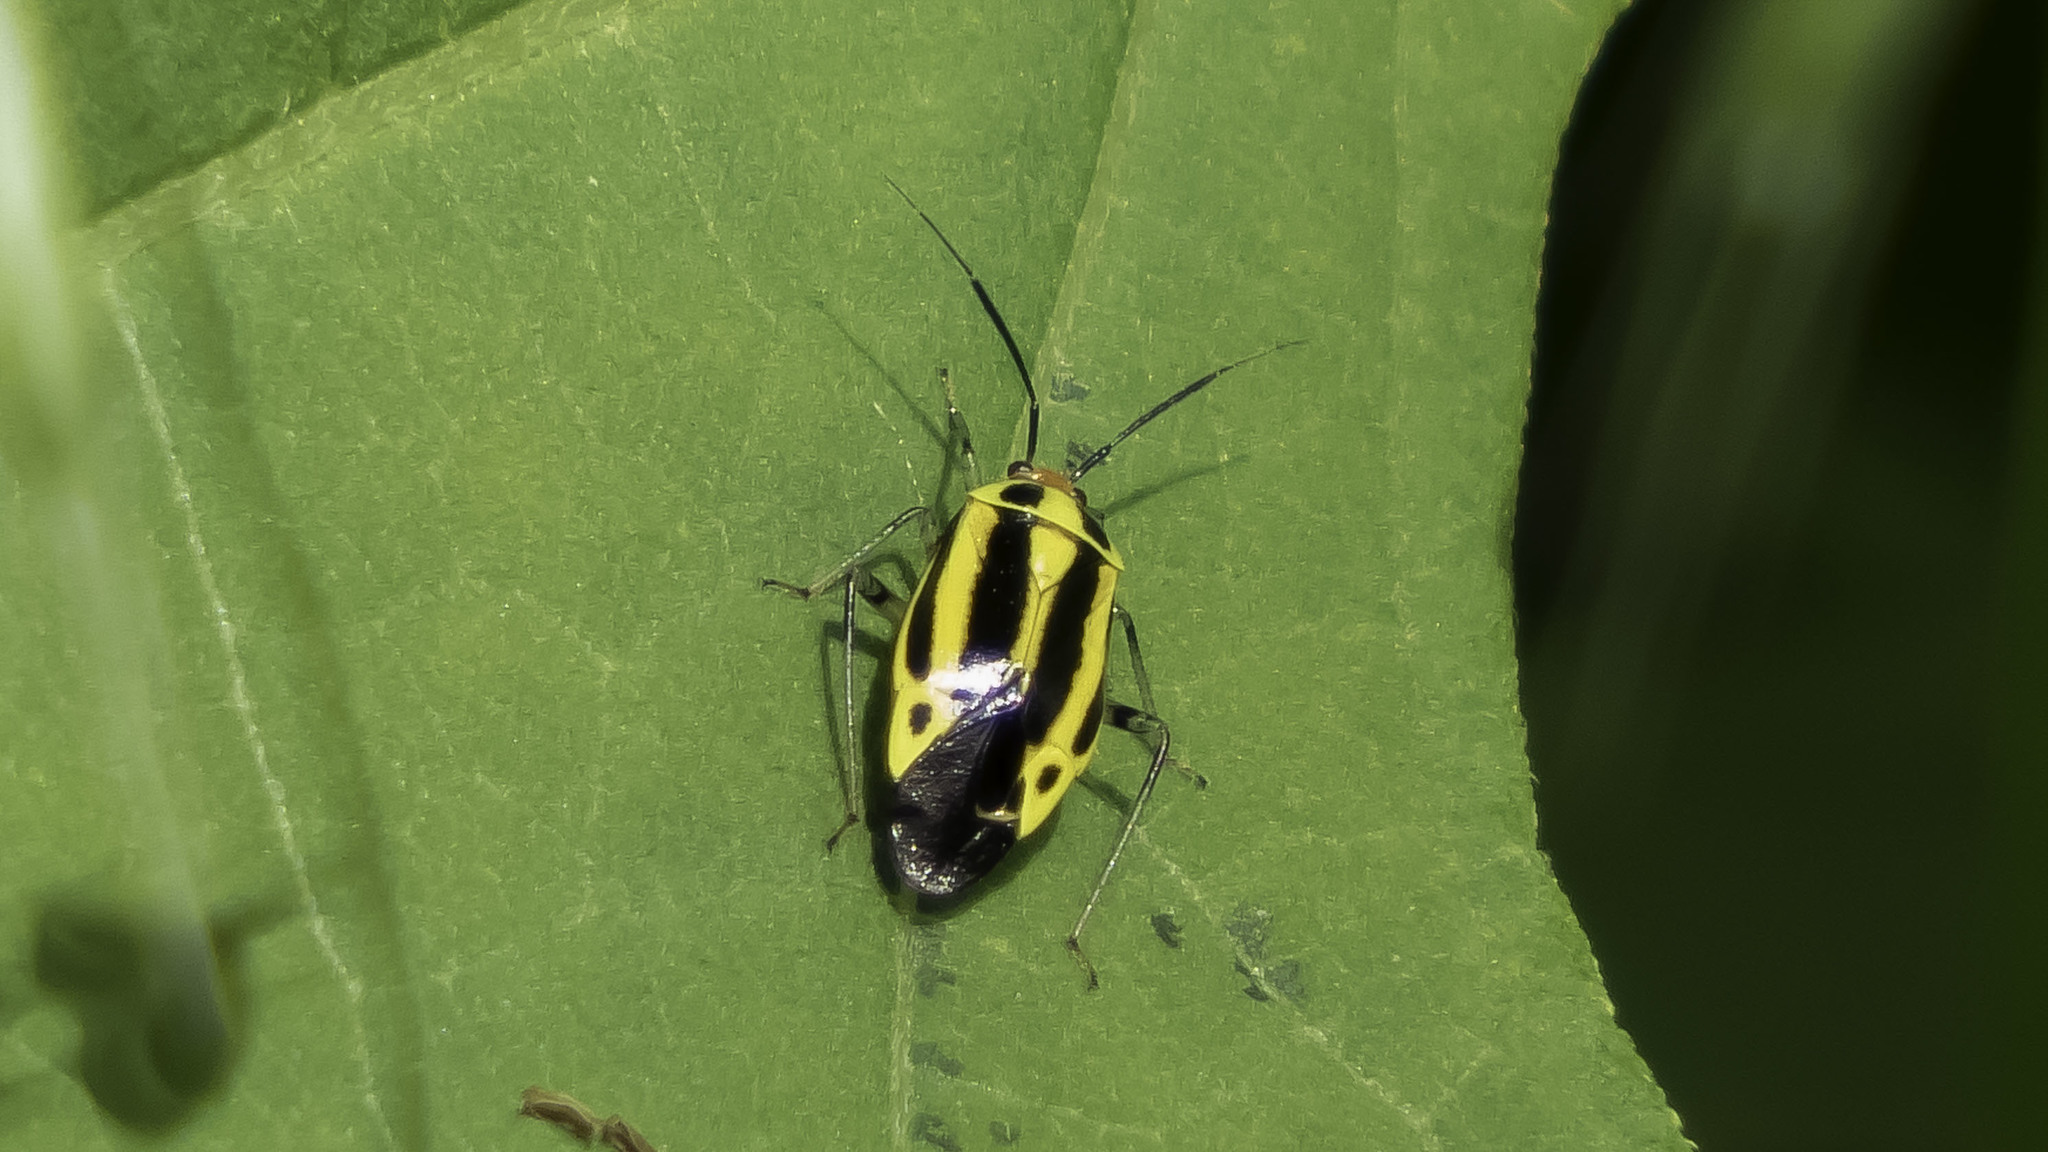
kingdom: Animalia
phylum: Arthropoda
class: Insecta
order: Hemiptera
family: Miridae
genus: Poecilocapsus
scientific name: Poecilocapsus lineatus
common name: Four-lined plant bug
